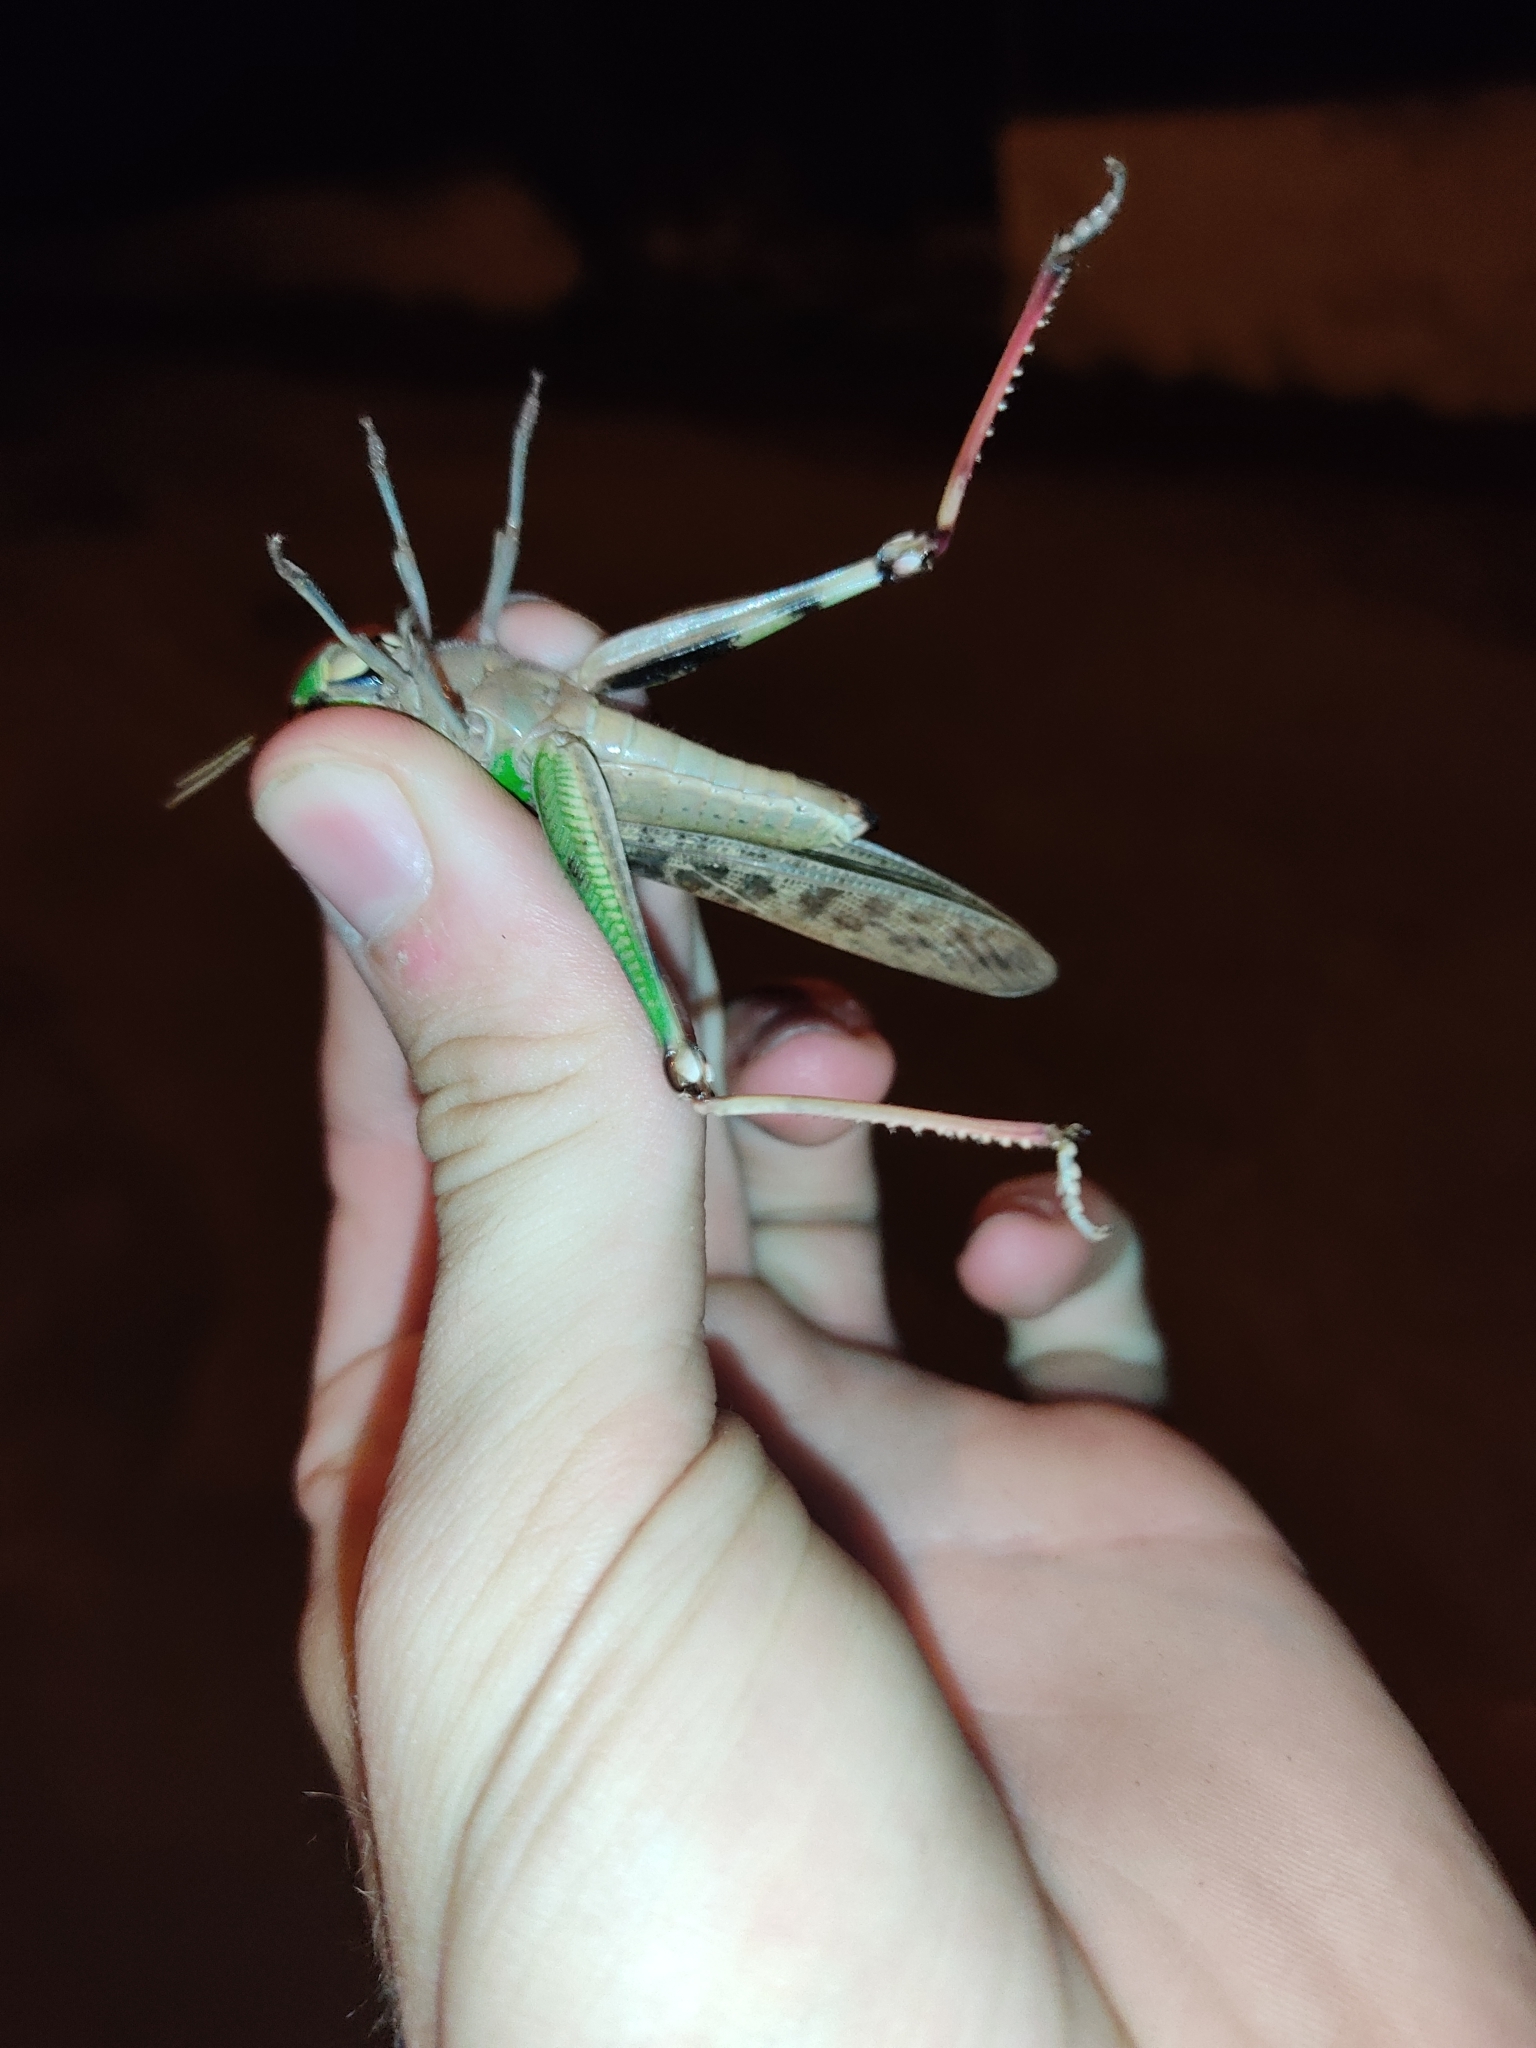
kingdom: Animalia
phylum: Arthropoda
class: Insecta
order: Orthoptera
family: Acrididae
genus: Locusta
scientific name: Locusta migratoria
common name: Migratory locust
